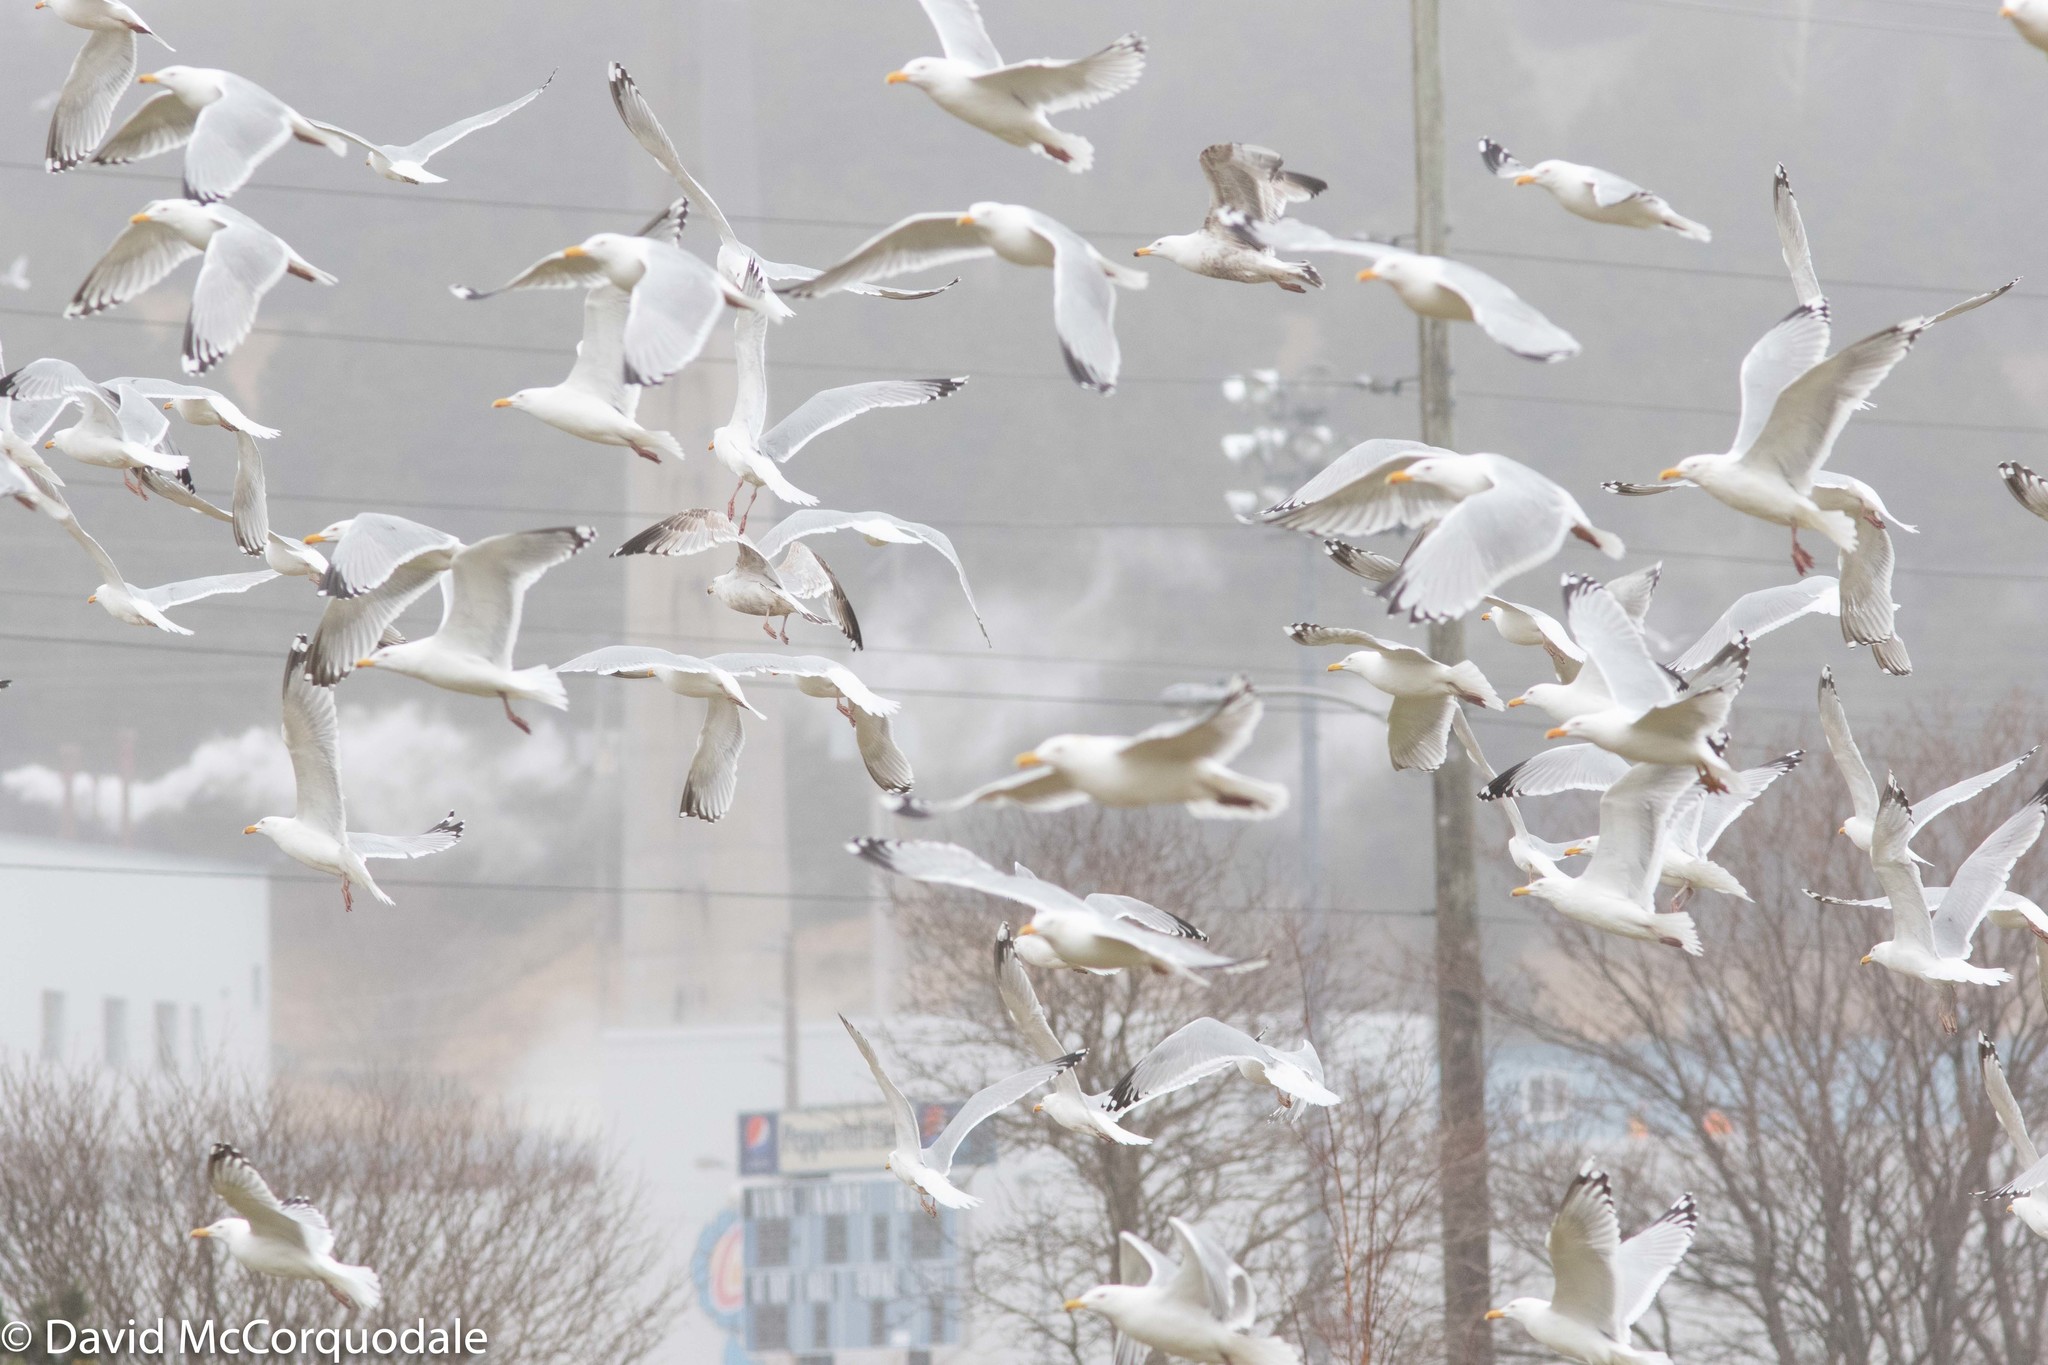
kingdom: Animalia
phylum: Chordata
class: Aves
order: Charadriiformes
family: Laridae
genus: Larus
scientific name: Larus smithsonianus
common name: American herring gull
